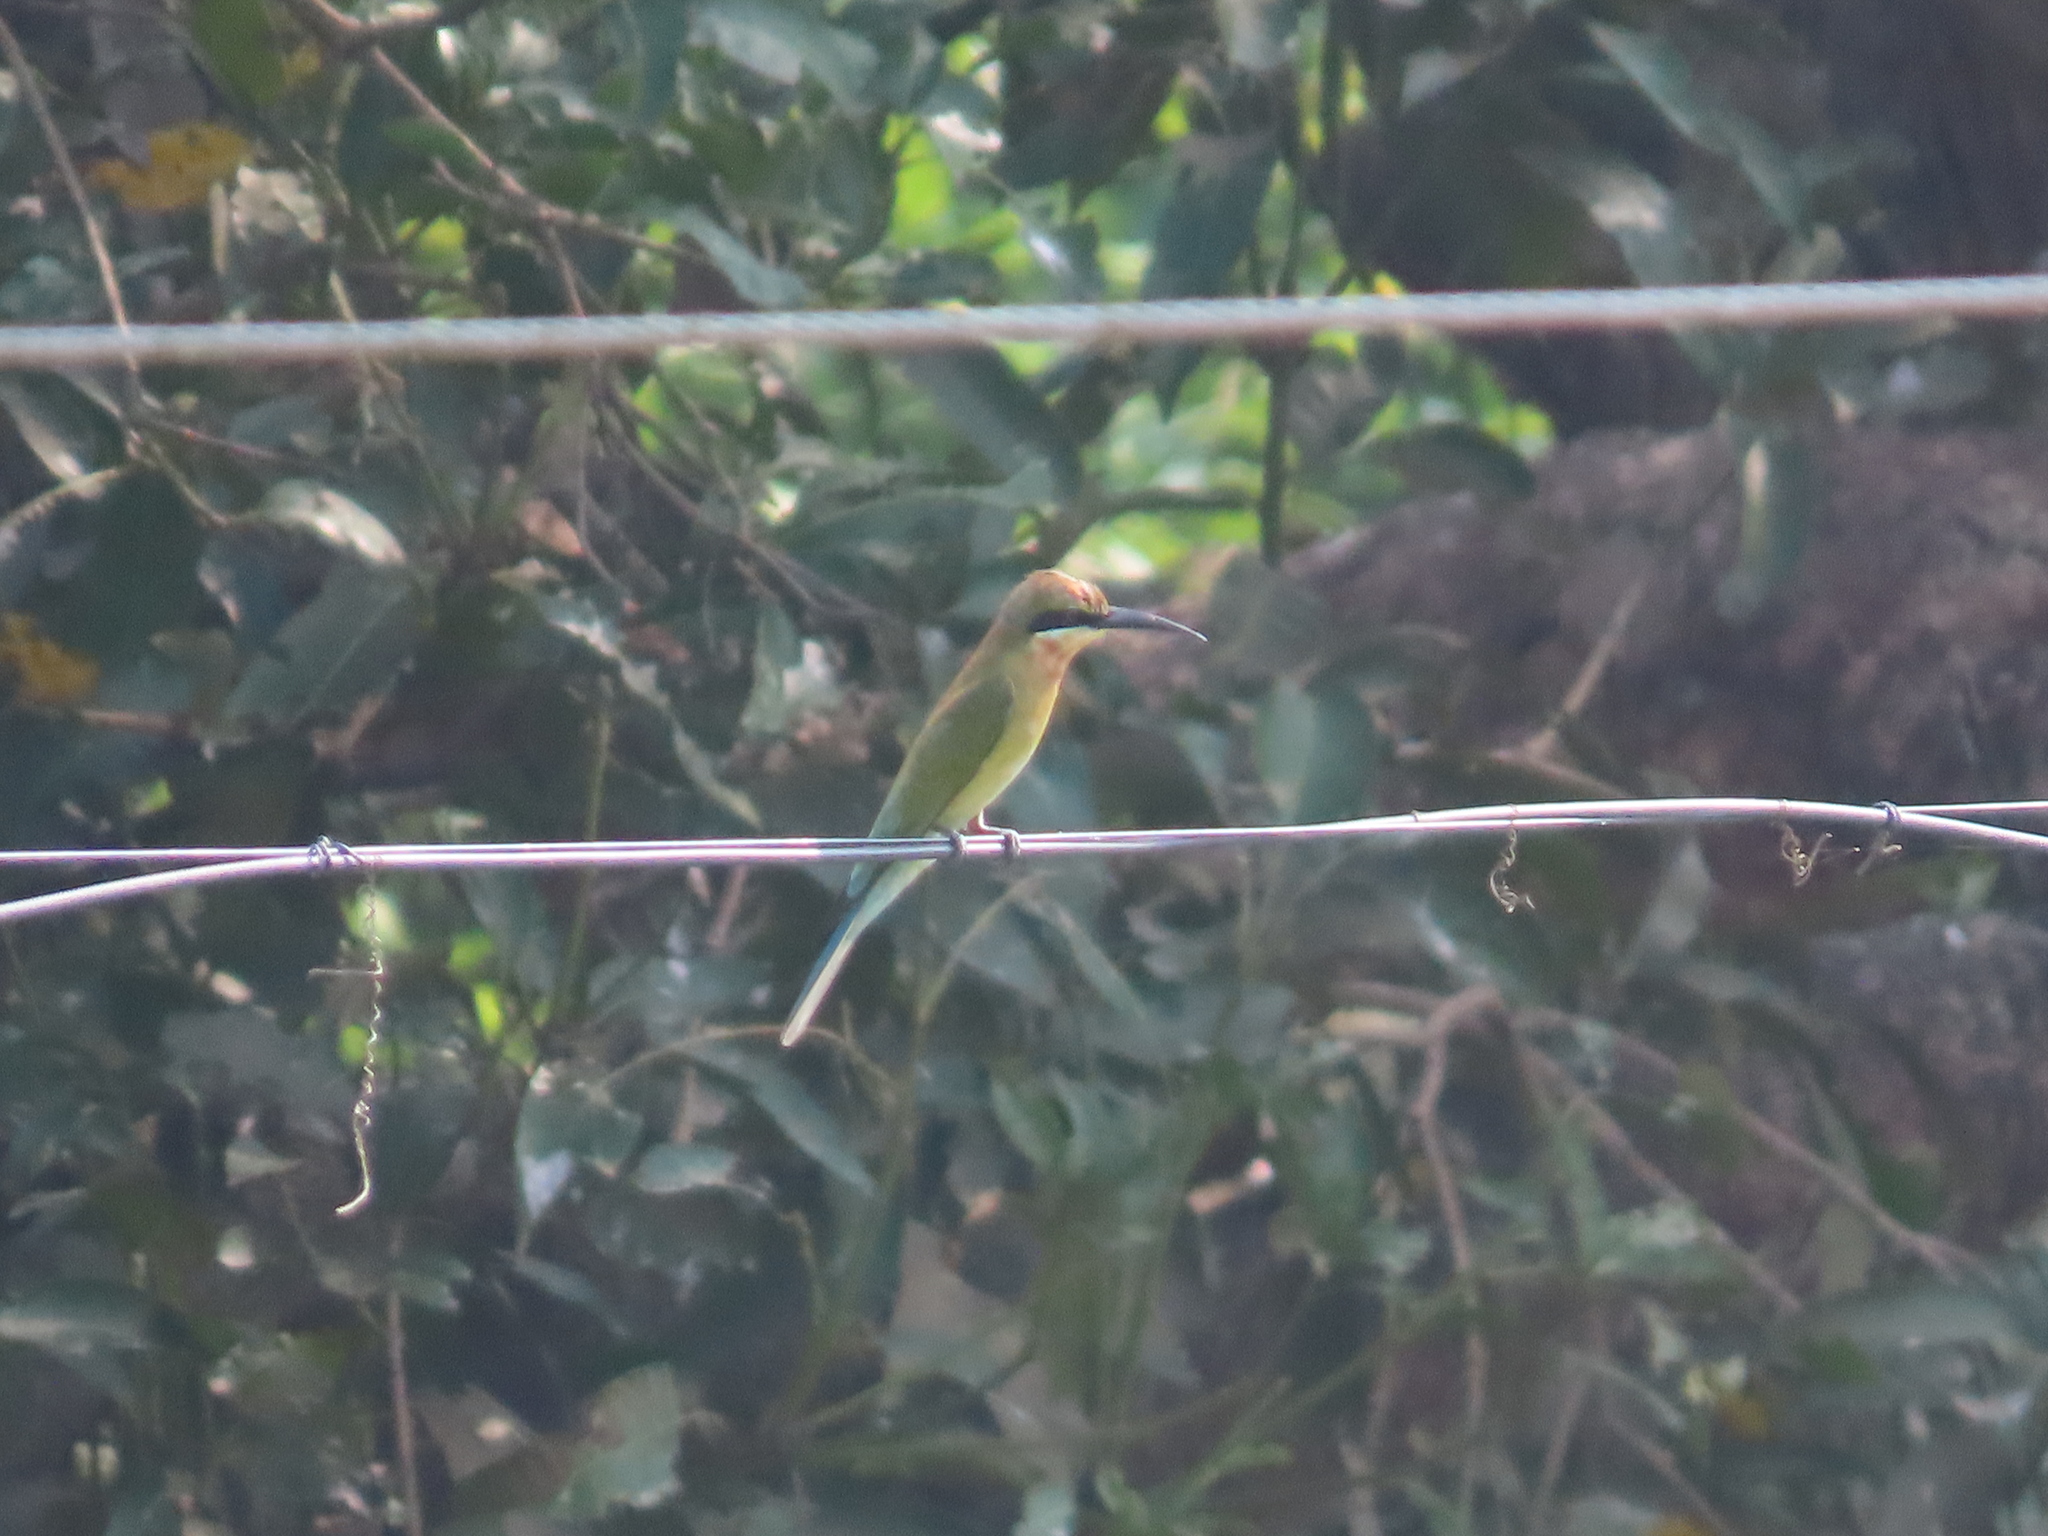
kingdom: Animalia
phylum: Chordata
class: Aves
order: Coraciiformes
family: Meropidae
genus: Merops
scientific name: Merops philippinus
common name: Blue-tailed bee-eater
